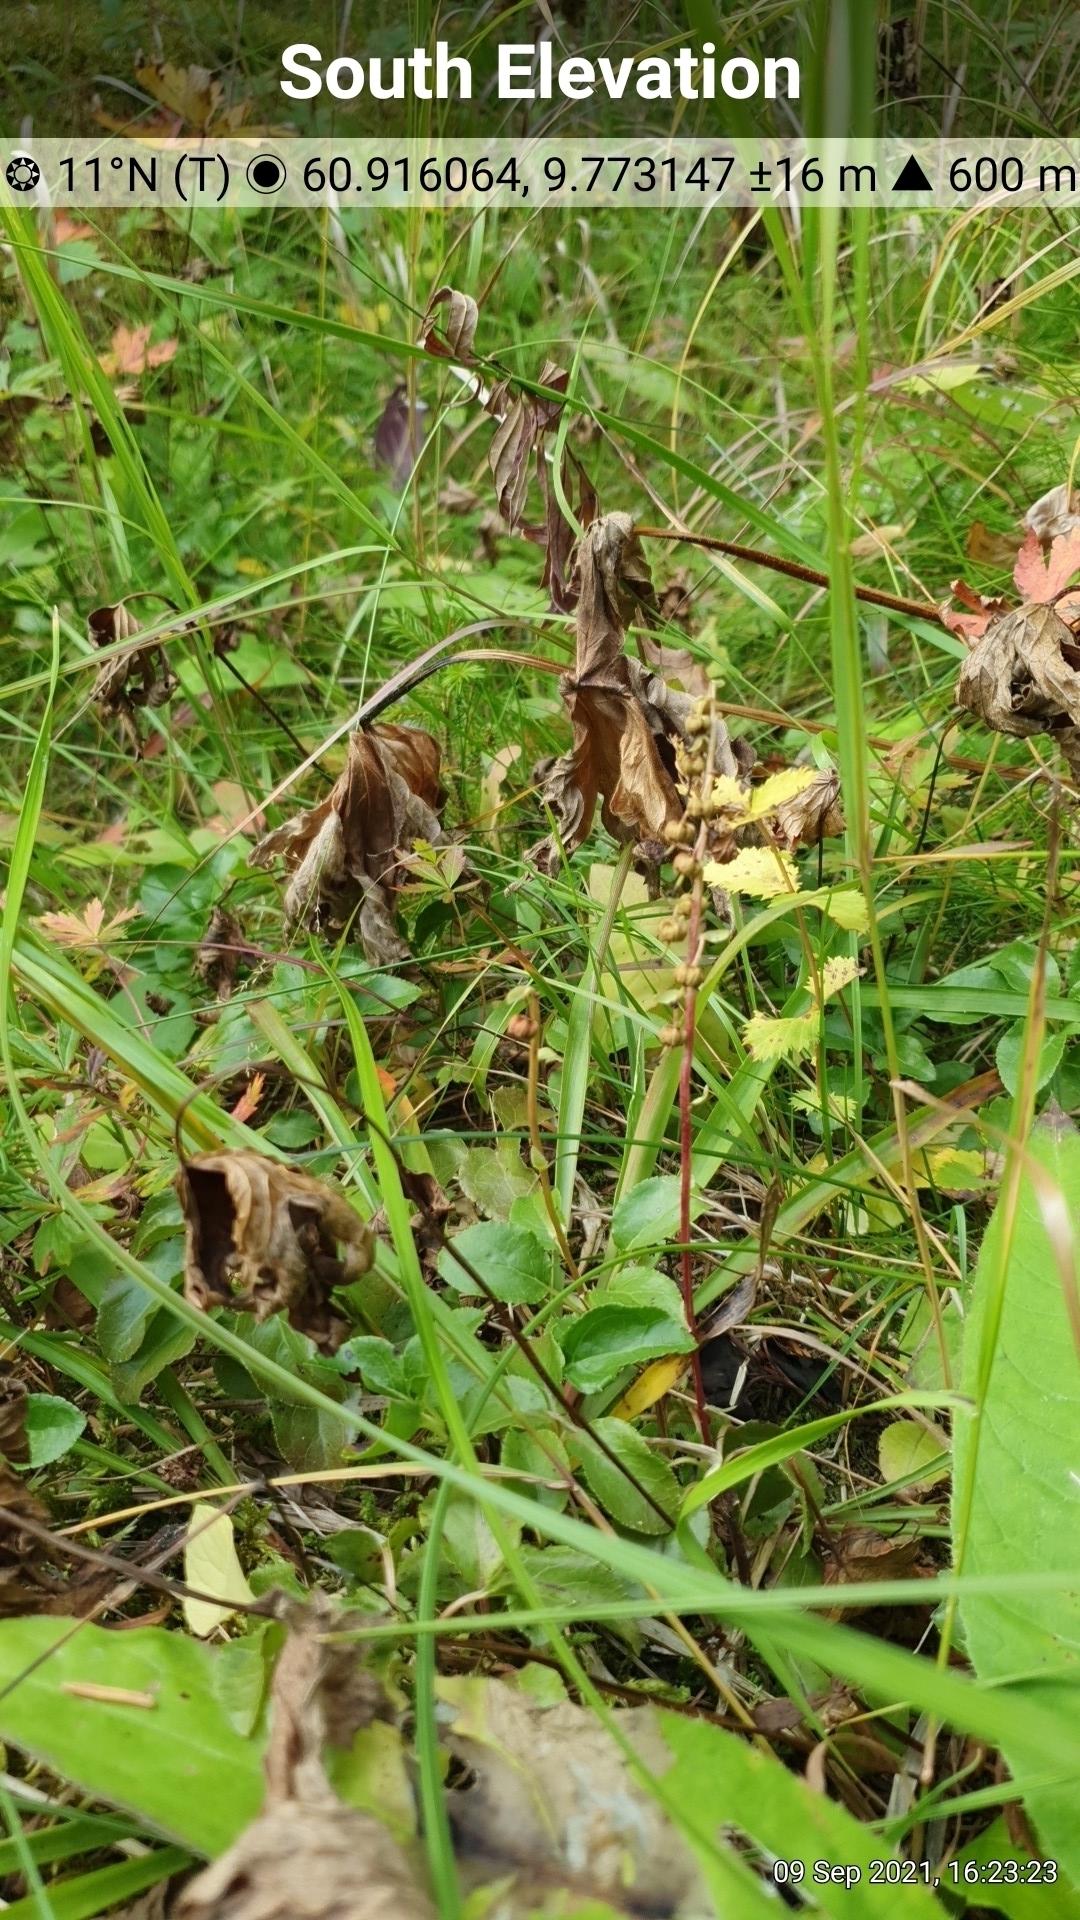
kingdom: Plantae
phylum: Tracheophyta
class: Magnoliopsida
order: Ericales
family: Ericaceae
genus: Orthilia
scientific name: Orthilia secunda
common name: One-sided orthilia
